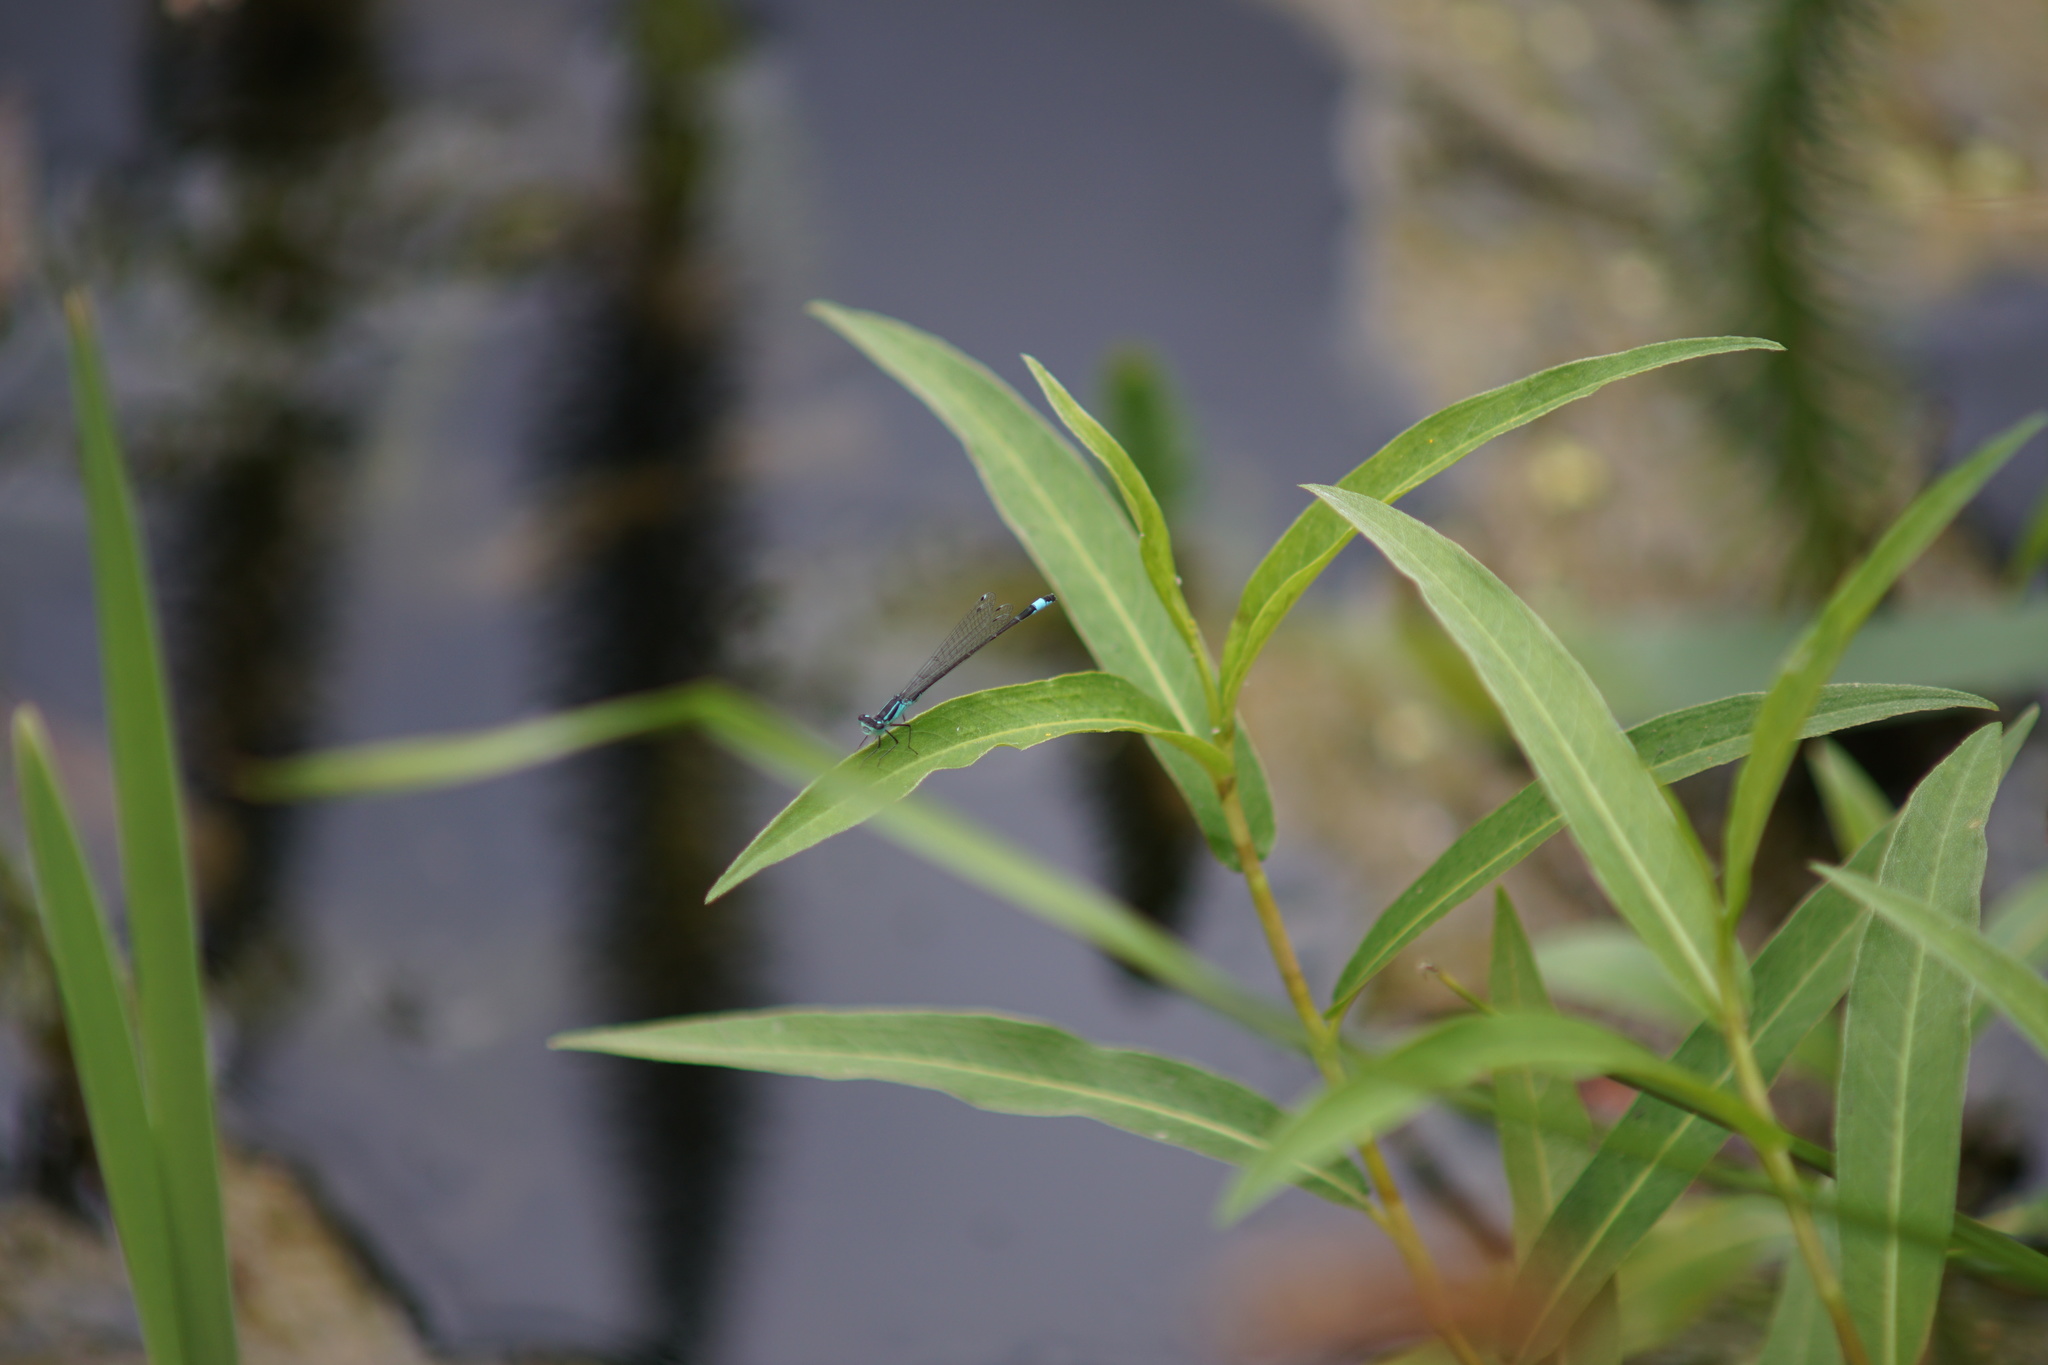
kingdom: Animalia
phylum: Arthropoda
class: Insecta
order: Odonata
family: Coenagrionidae
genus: Ischnura
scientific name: Ischnura elegans
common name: Blue-tailed damselfly
